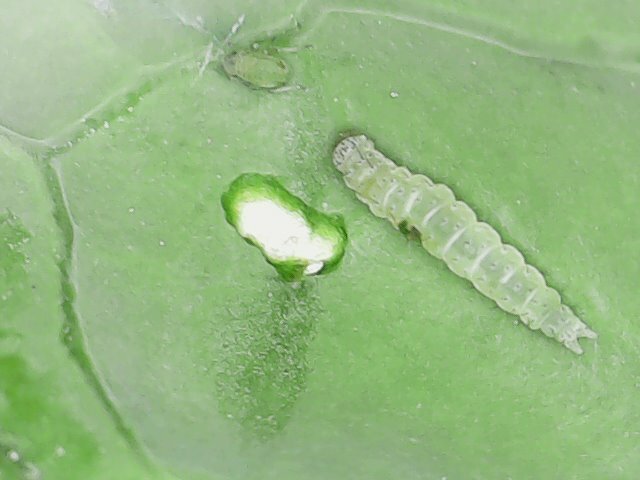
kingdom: Animalia
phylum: Arthropoda
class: Insecta
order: Lepidoptera
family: Plutellidae
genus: Plutella
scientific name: Plutella xylostella
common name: Diamond-back moth
